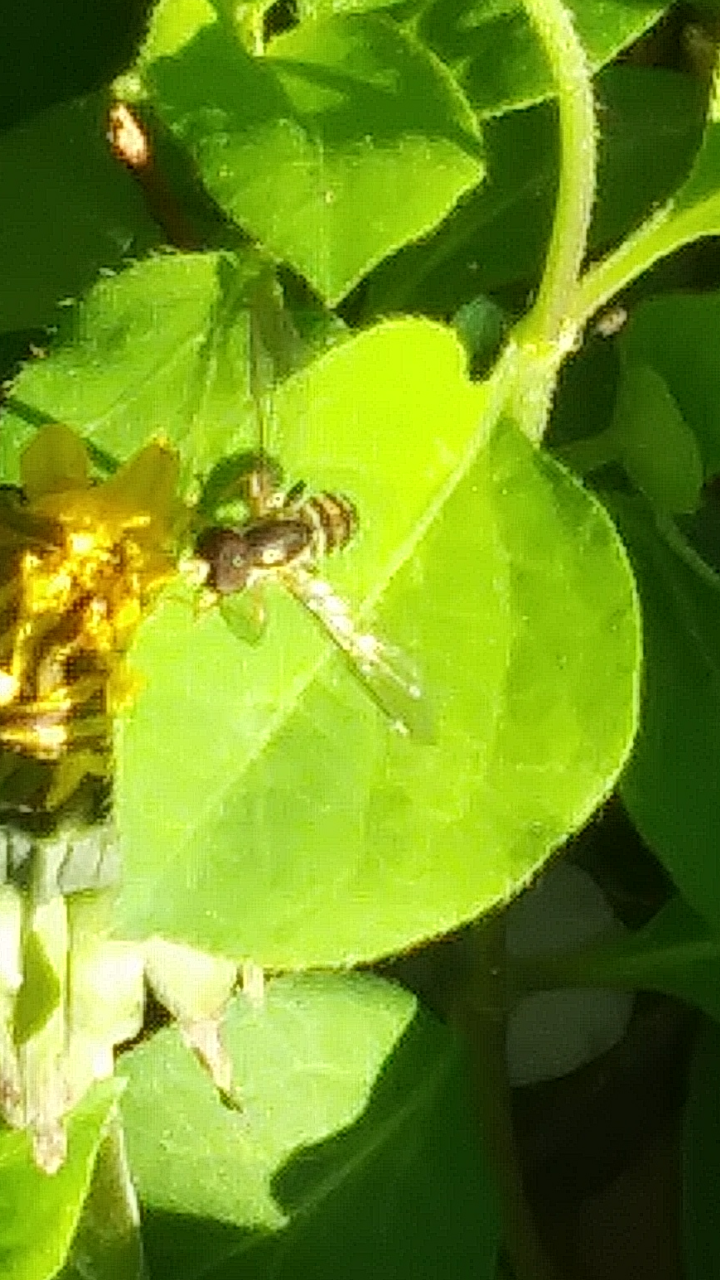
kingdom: Animalia
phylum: Arthropoda
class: Insecta
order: Diptera
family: Syrphidae
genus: Toxomerus
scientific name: Toxomerus geminatus
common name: Eastern calligrapher
